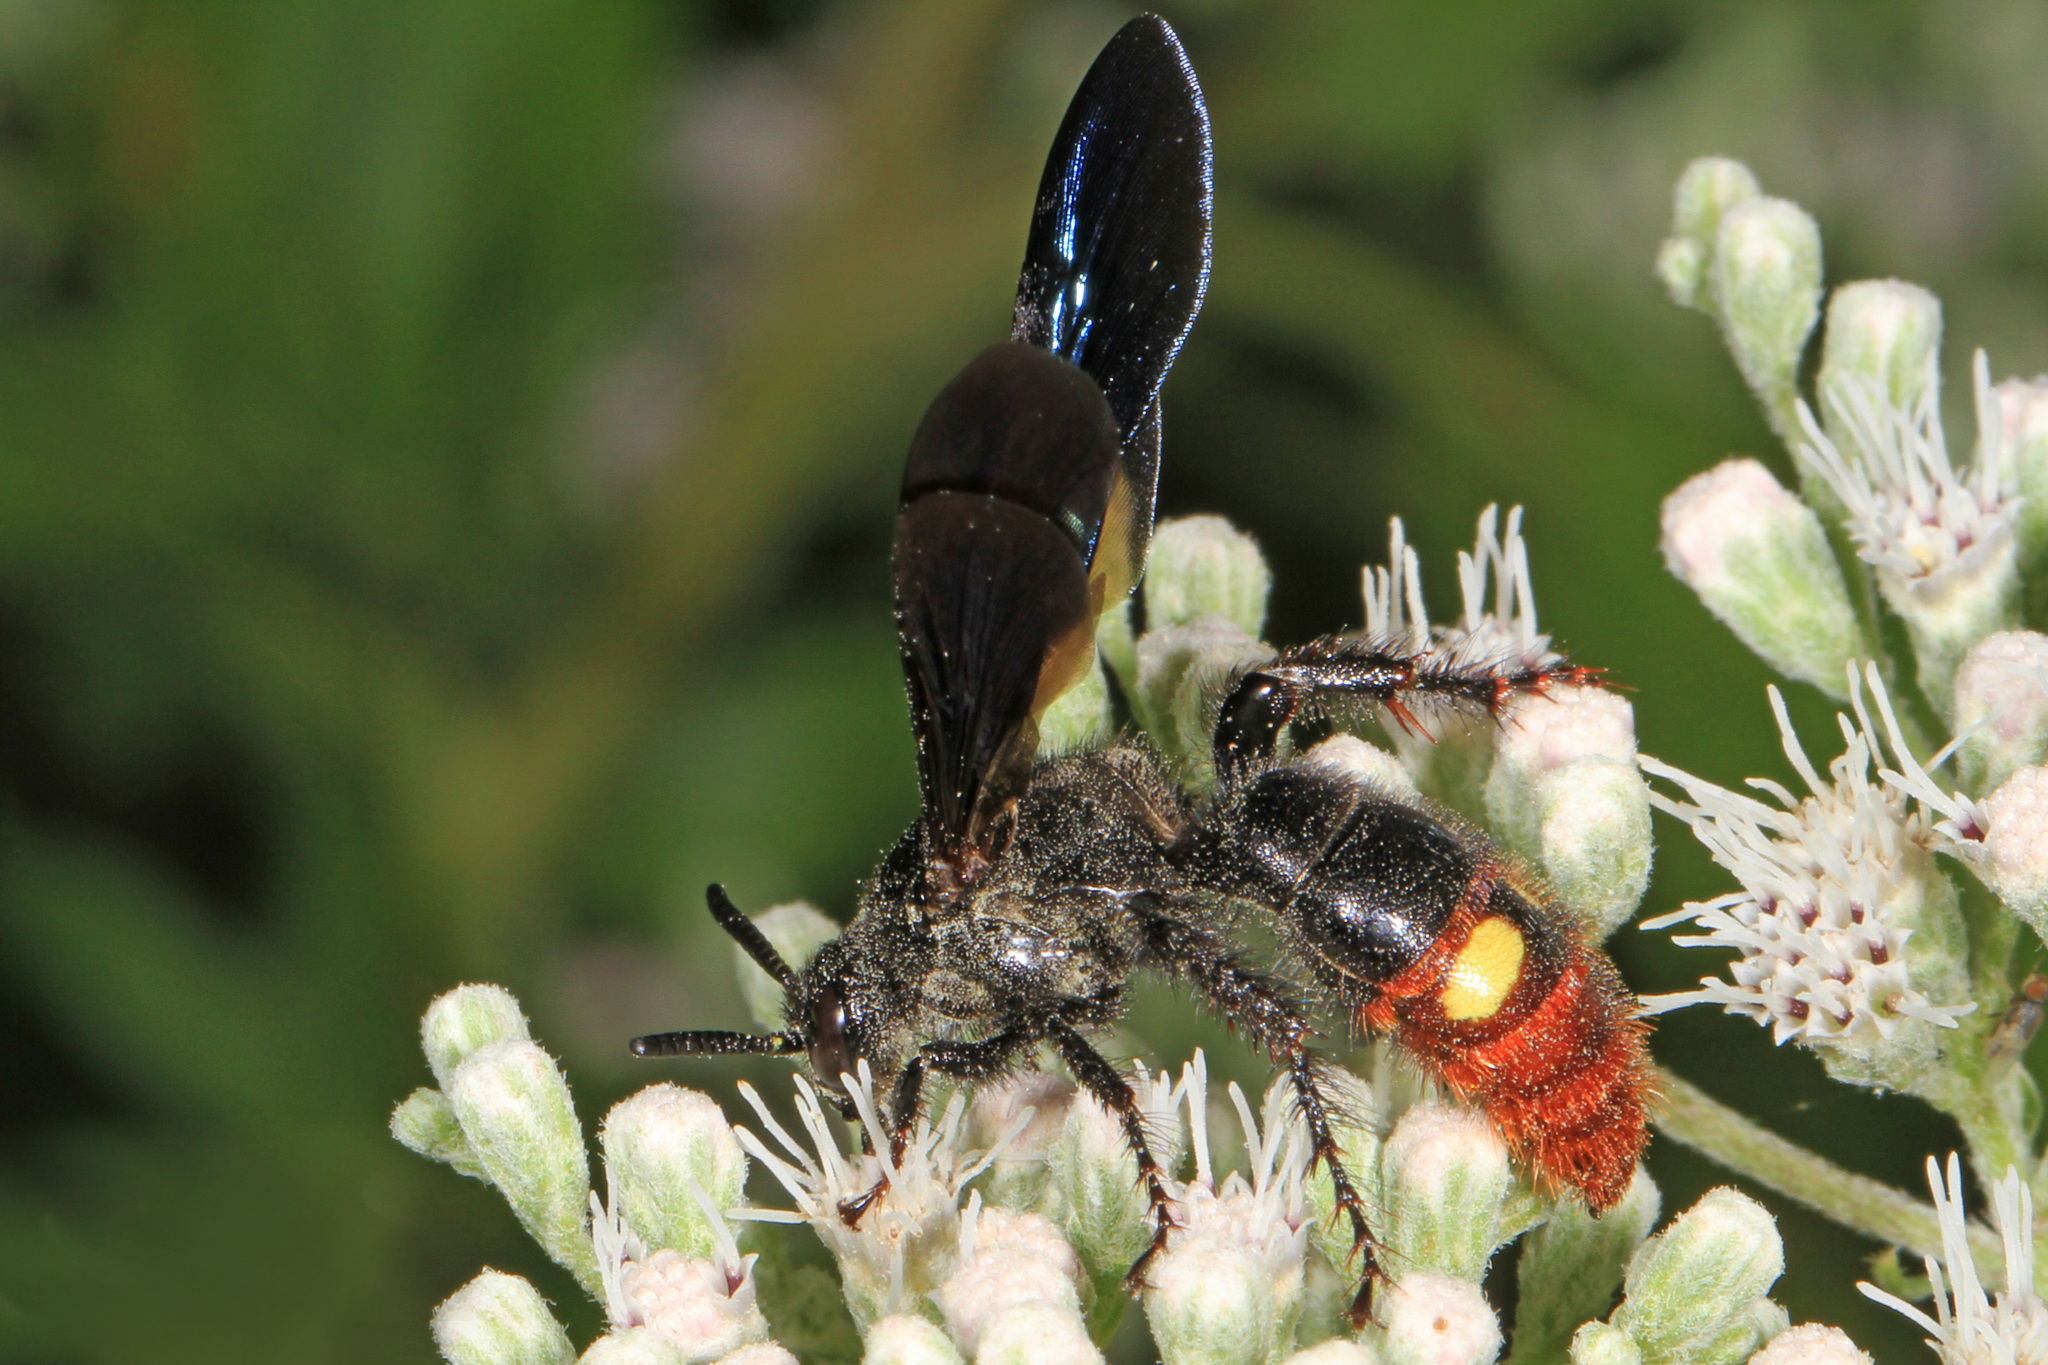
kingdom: Animalia
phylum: Arthropoda
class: Insecta
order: Hymenoptera
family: Scoliidae
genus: Scolia
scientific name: Scolia dubia
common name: Blue-winged scoliid wasp
